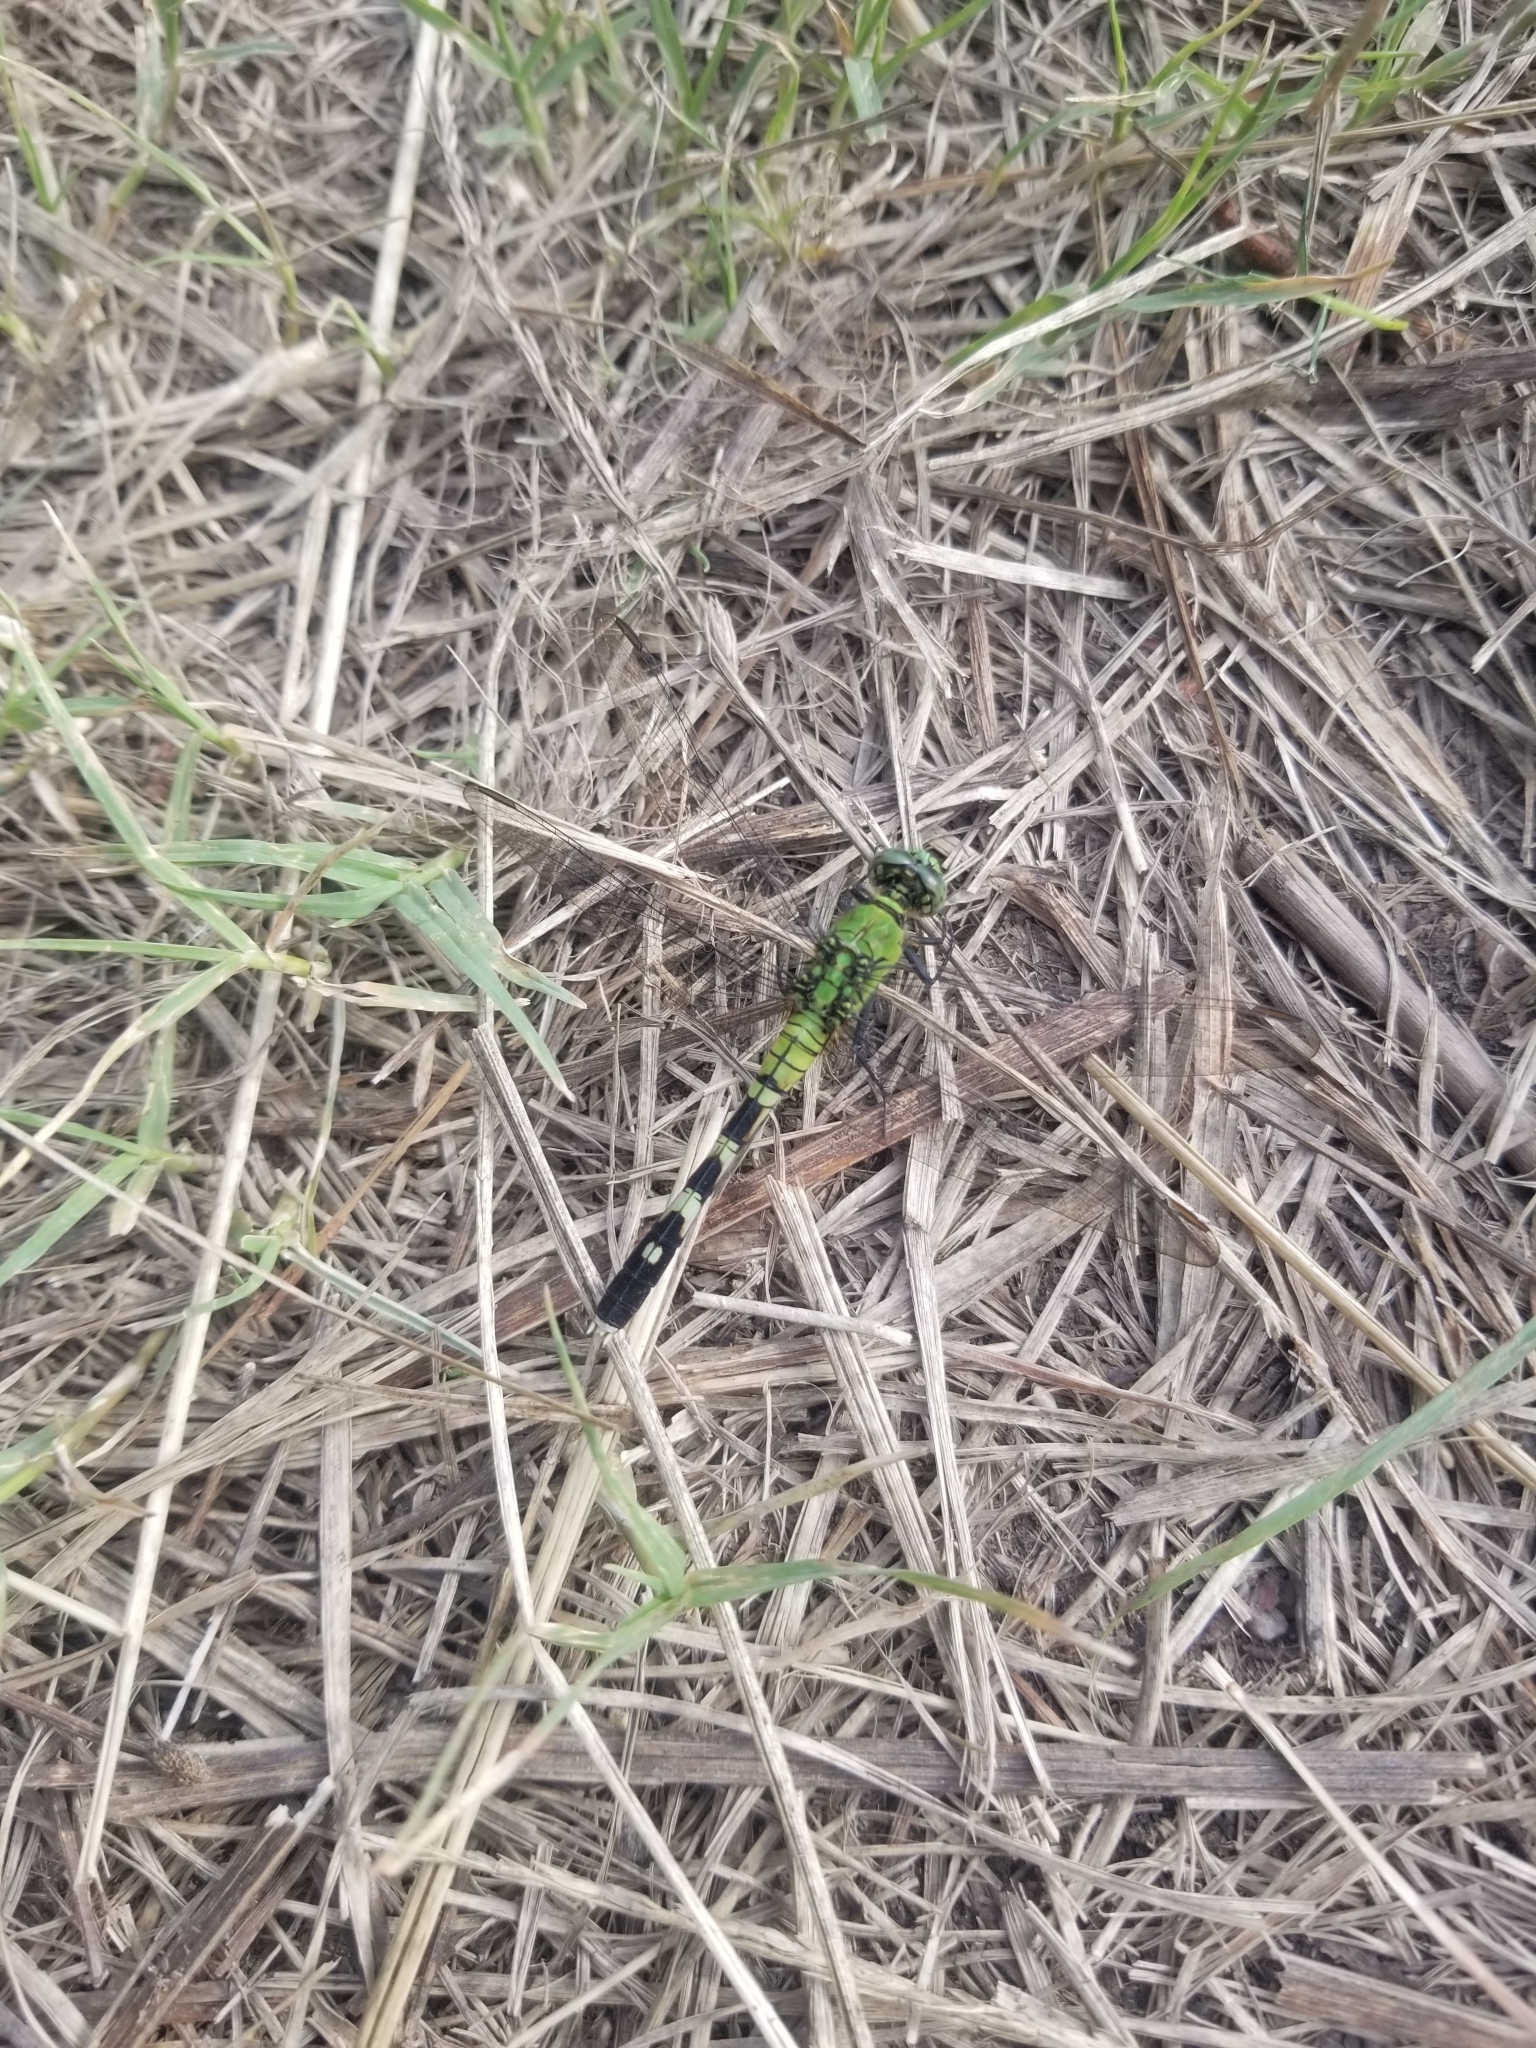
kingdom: Animalia
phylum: Arthropoda
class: Insecta
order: Odonata
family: Libellulidae
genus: Erythemis
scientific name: Erythemis simplicicollis
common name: Eastern pondhawk
